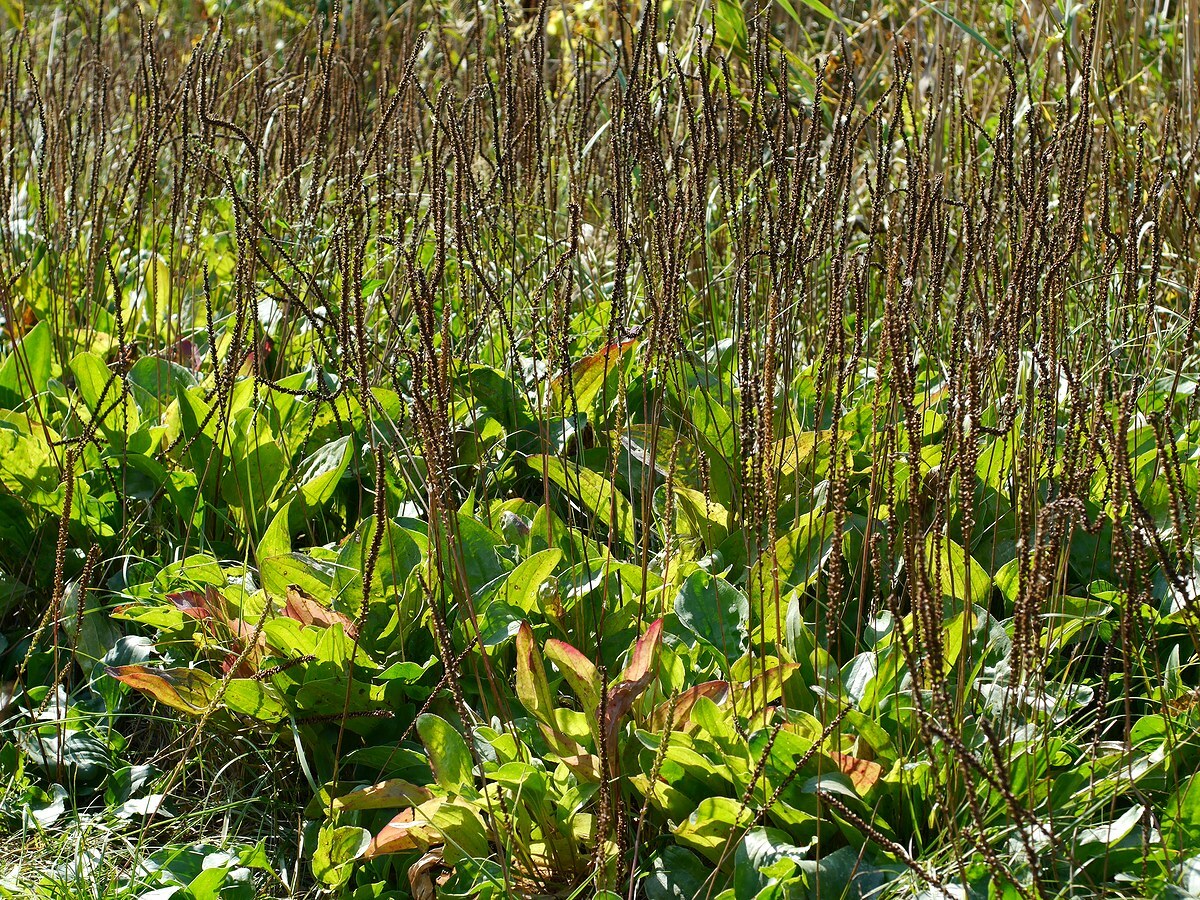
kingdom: Plantae
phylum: Tracheophyta
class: Magnoliopsida
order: Lamiales
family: Plantaginaceae
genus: Plantago
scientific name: Plantago cornuti
